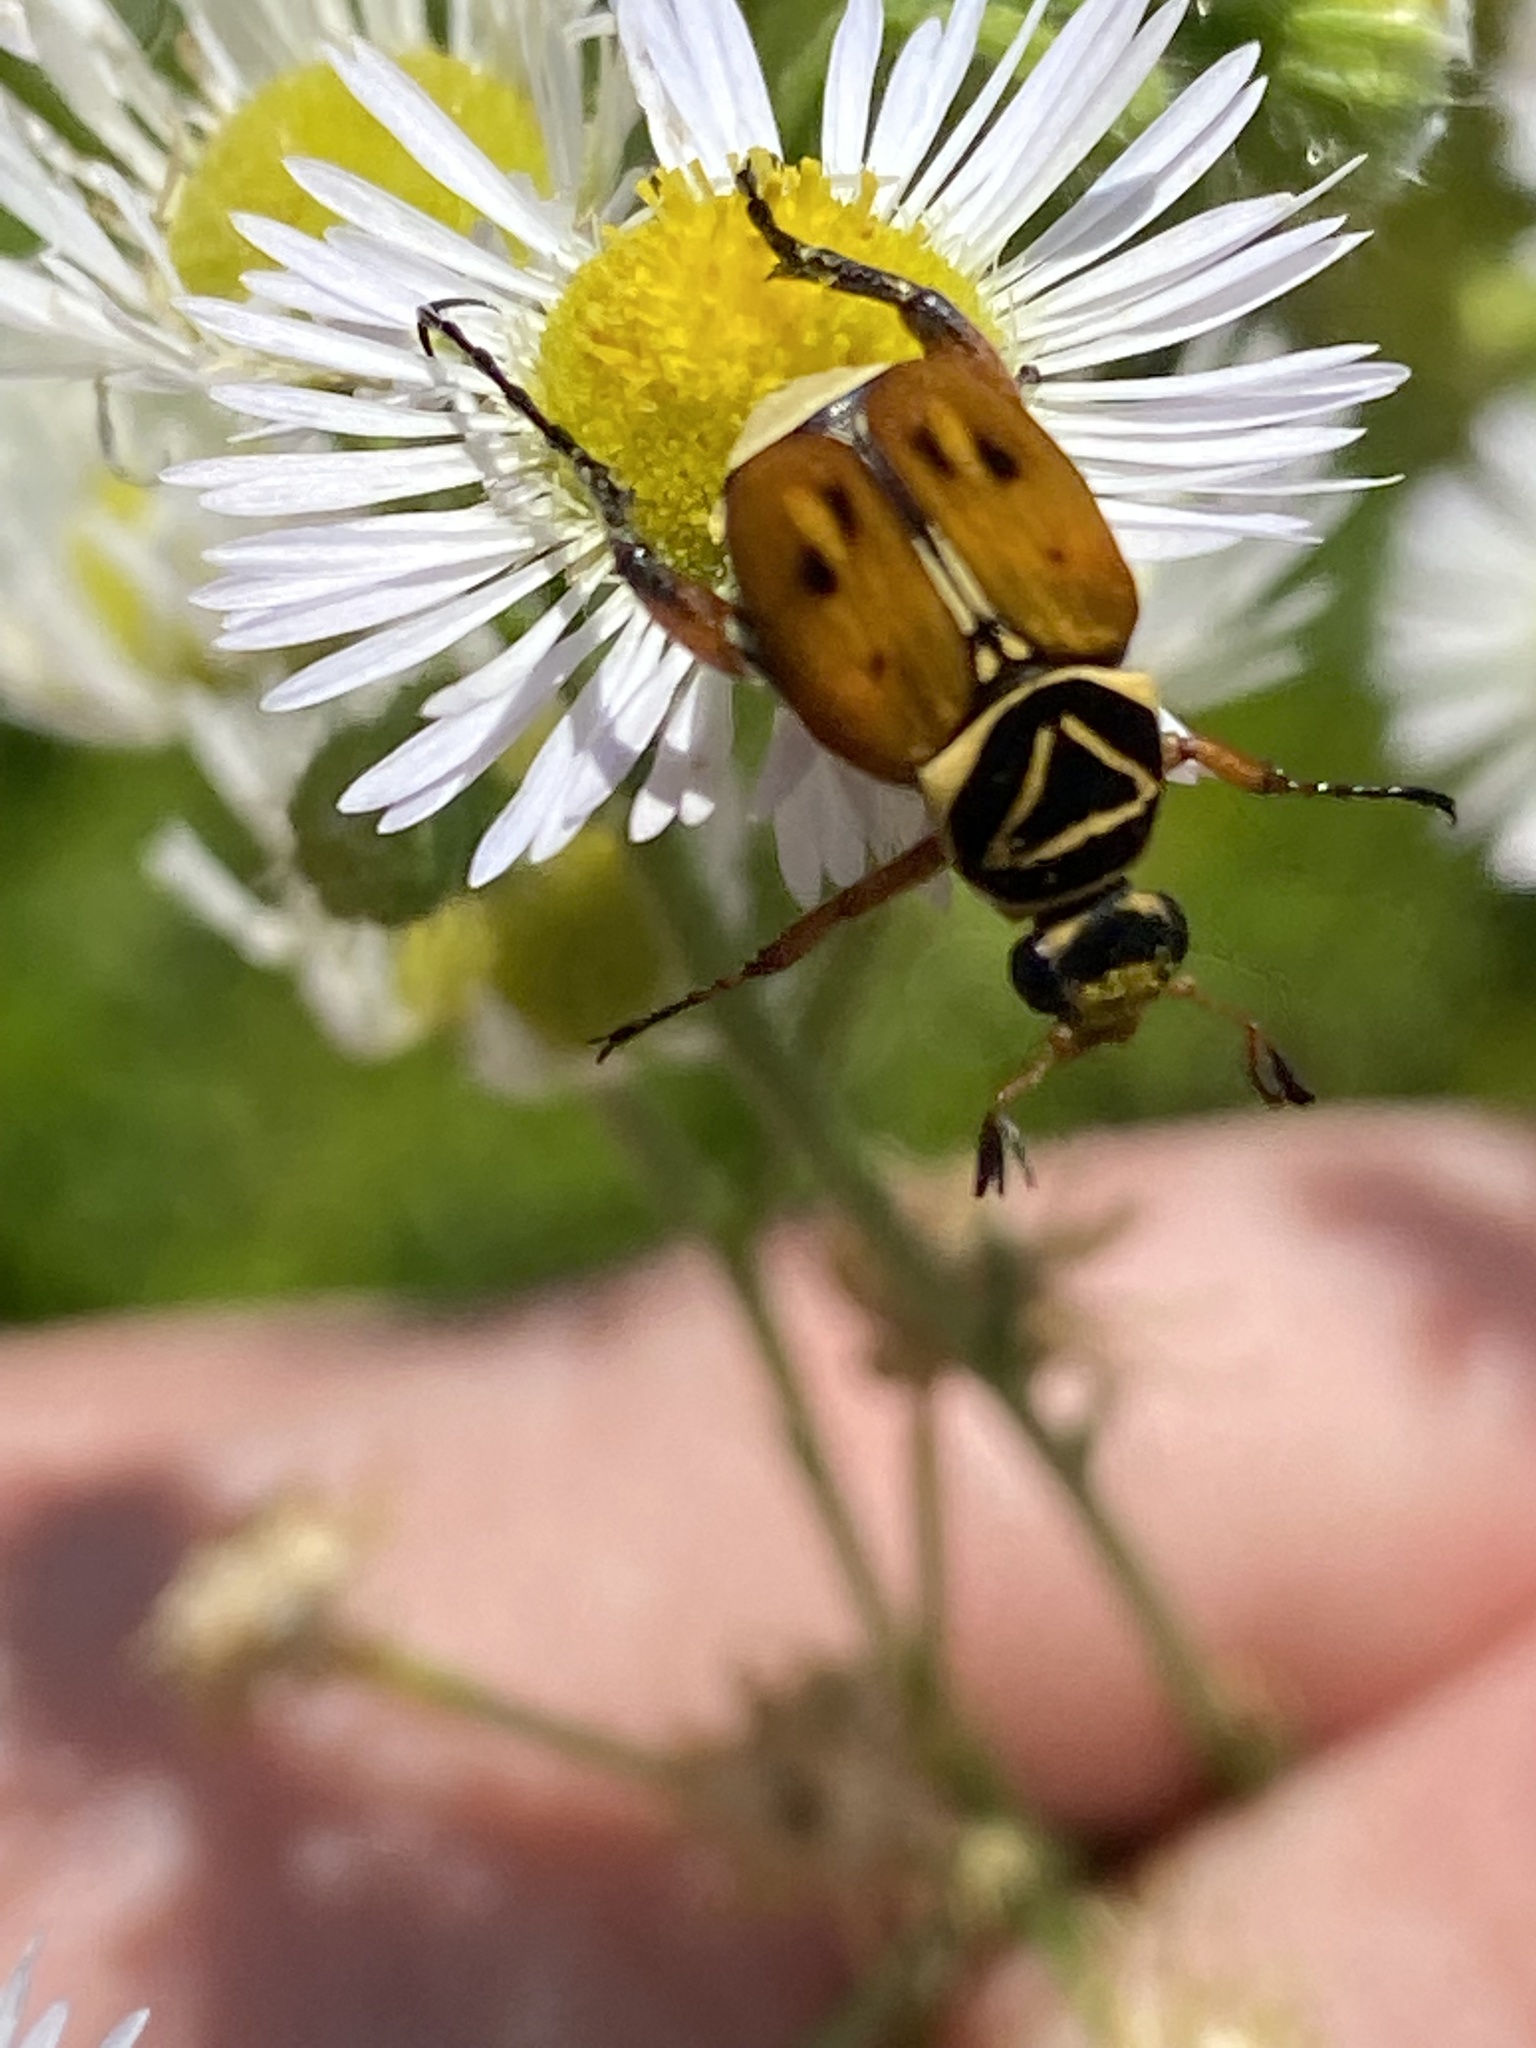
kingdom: Animalia
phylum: Arthropoda
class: Insecta
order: Coleoptera
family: Scarabaeidae
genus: Trigonopeltastes
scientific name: Trigonopeltastes delta
